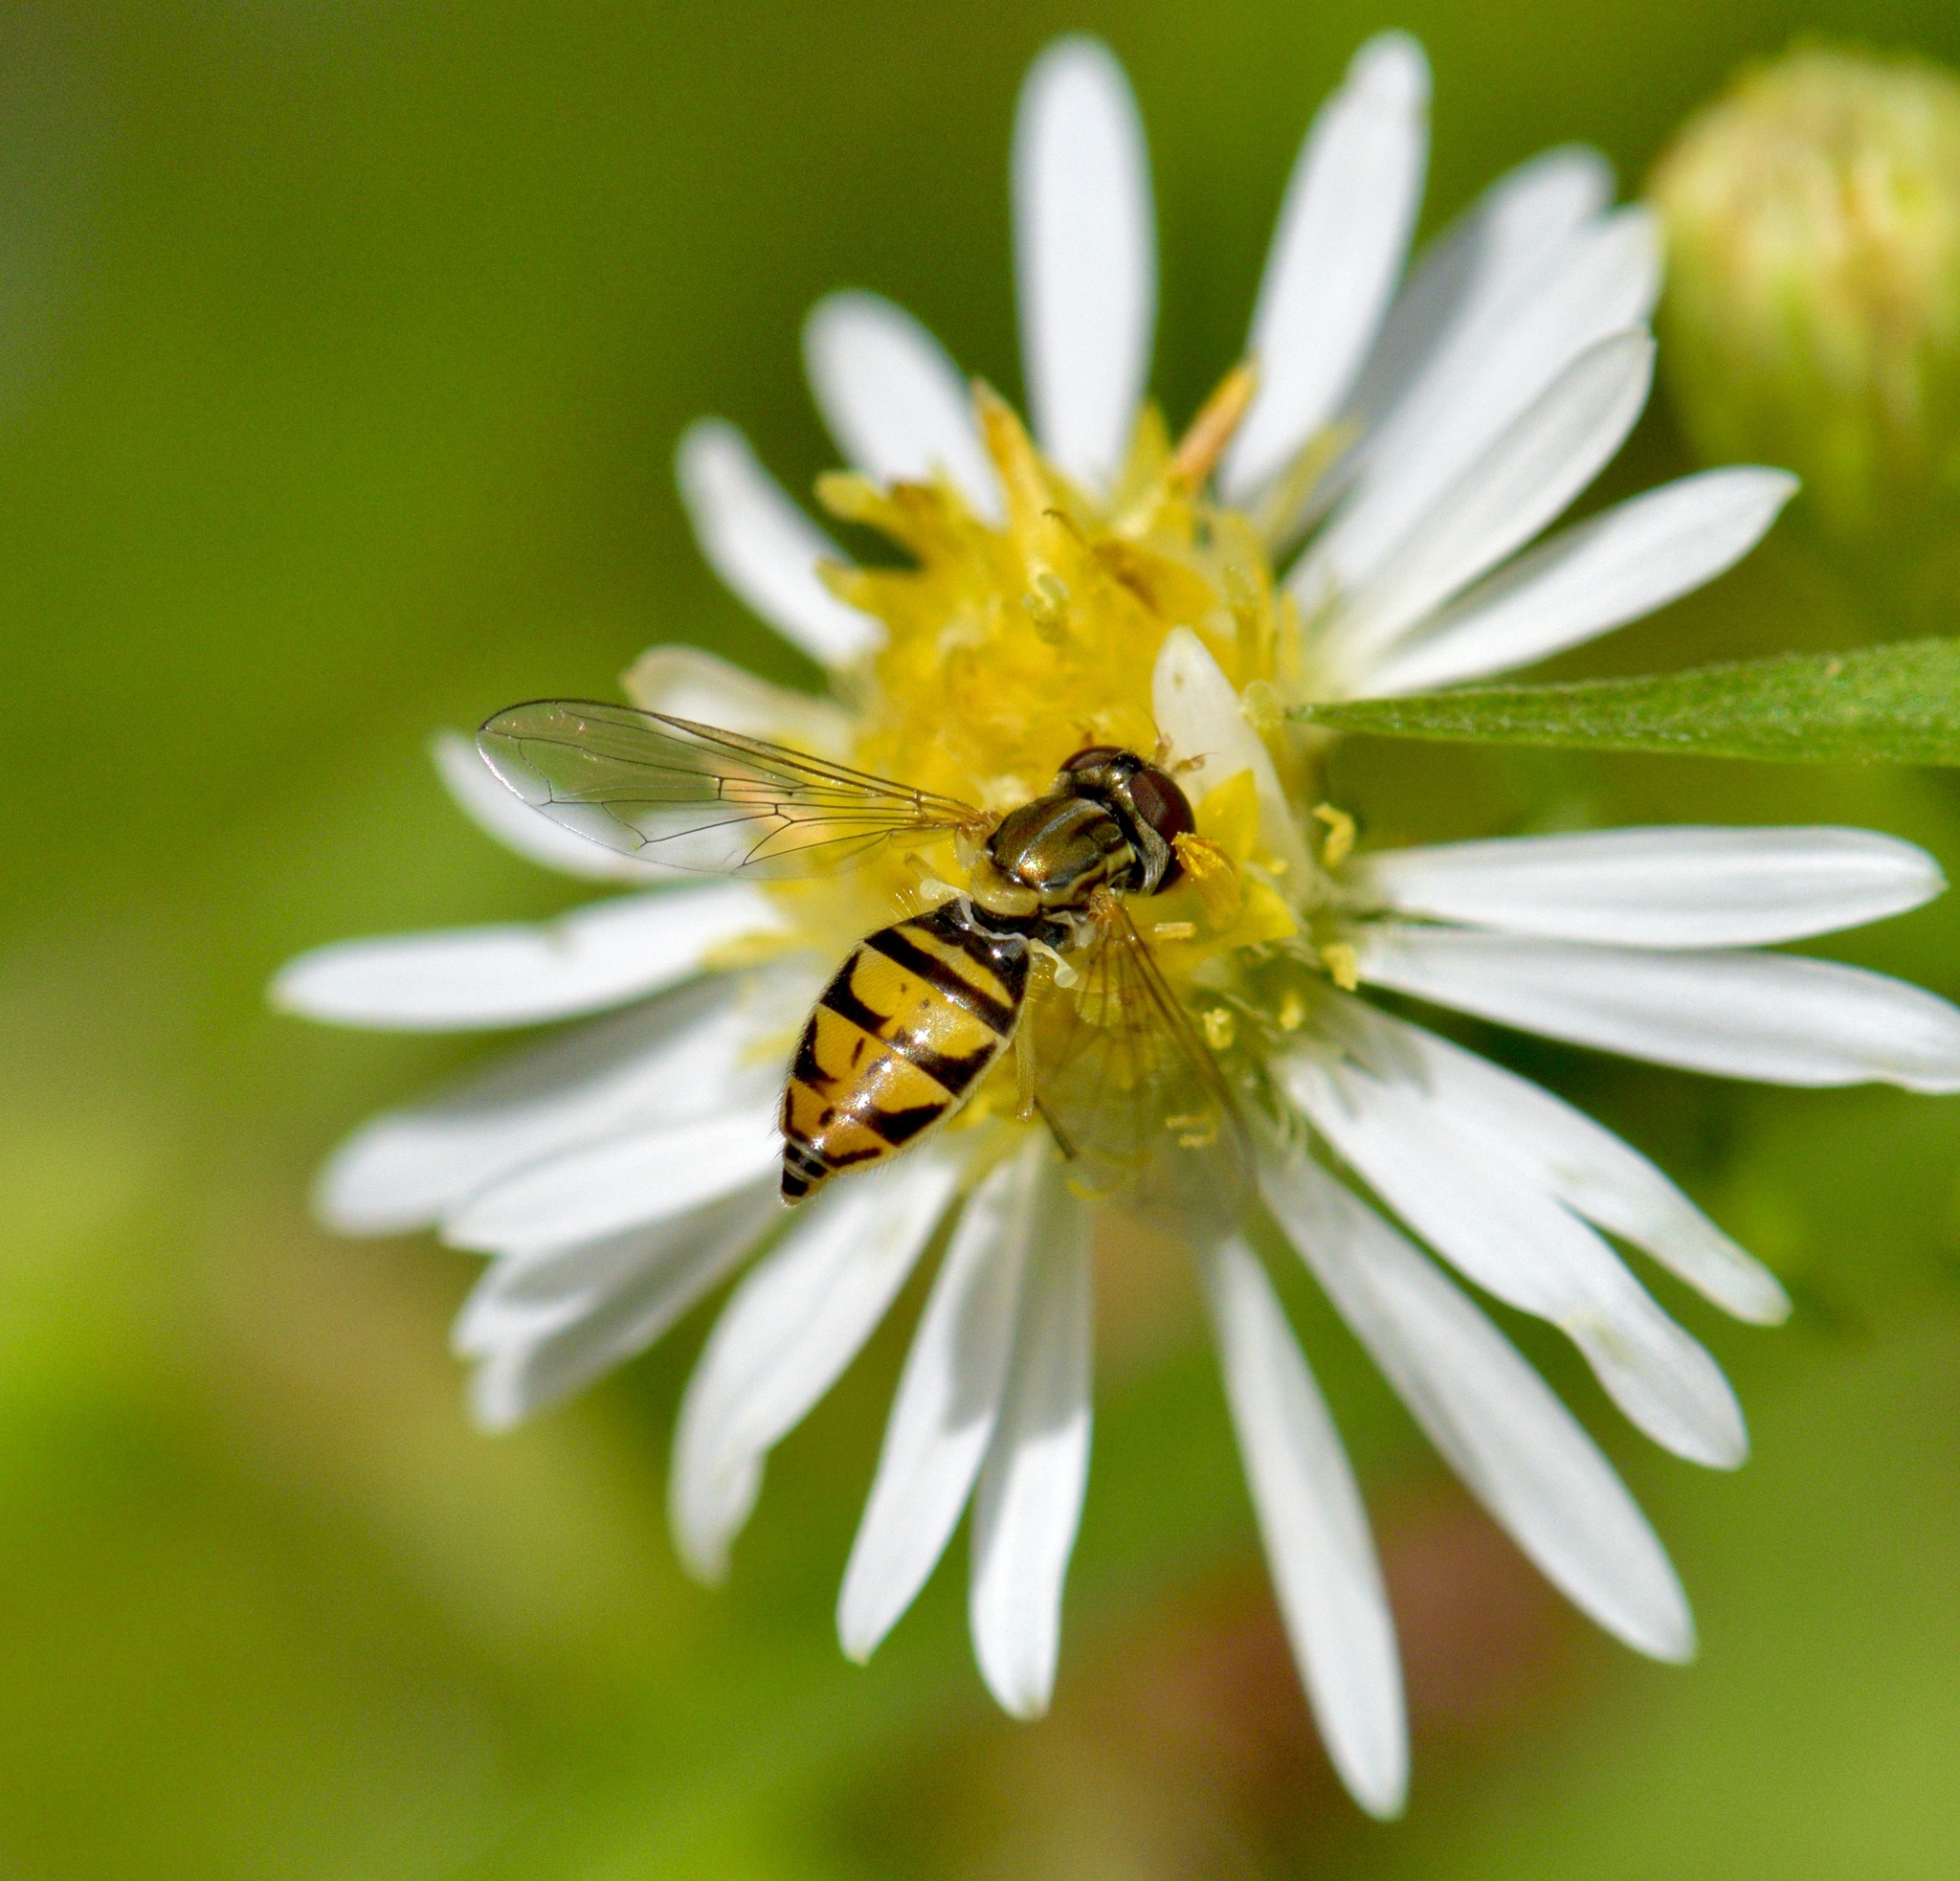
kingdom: Animalia
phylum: Arthropoda
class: Insecta
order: Diptera
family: Syrphidae
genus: Toxomerus
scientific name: Toxomerus marginatus
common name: Syrphid fly
